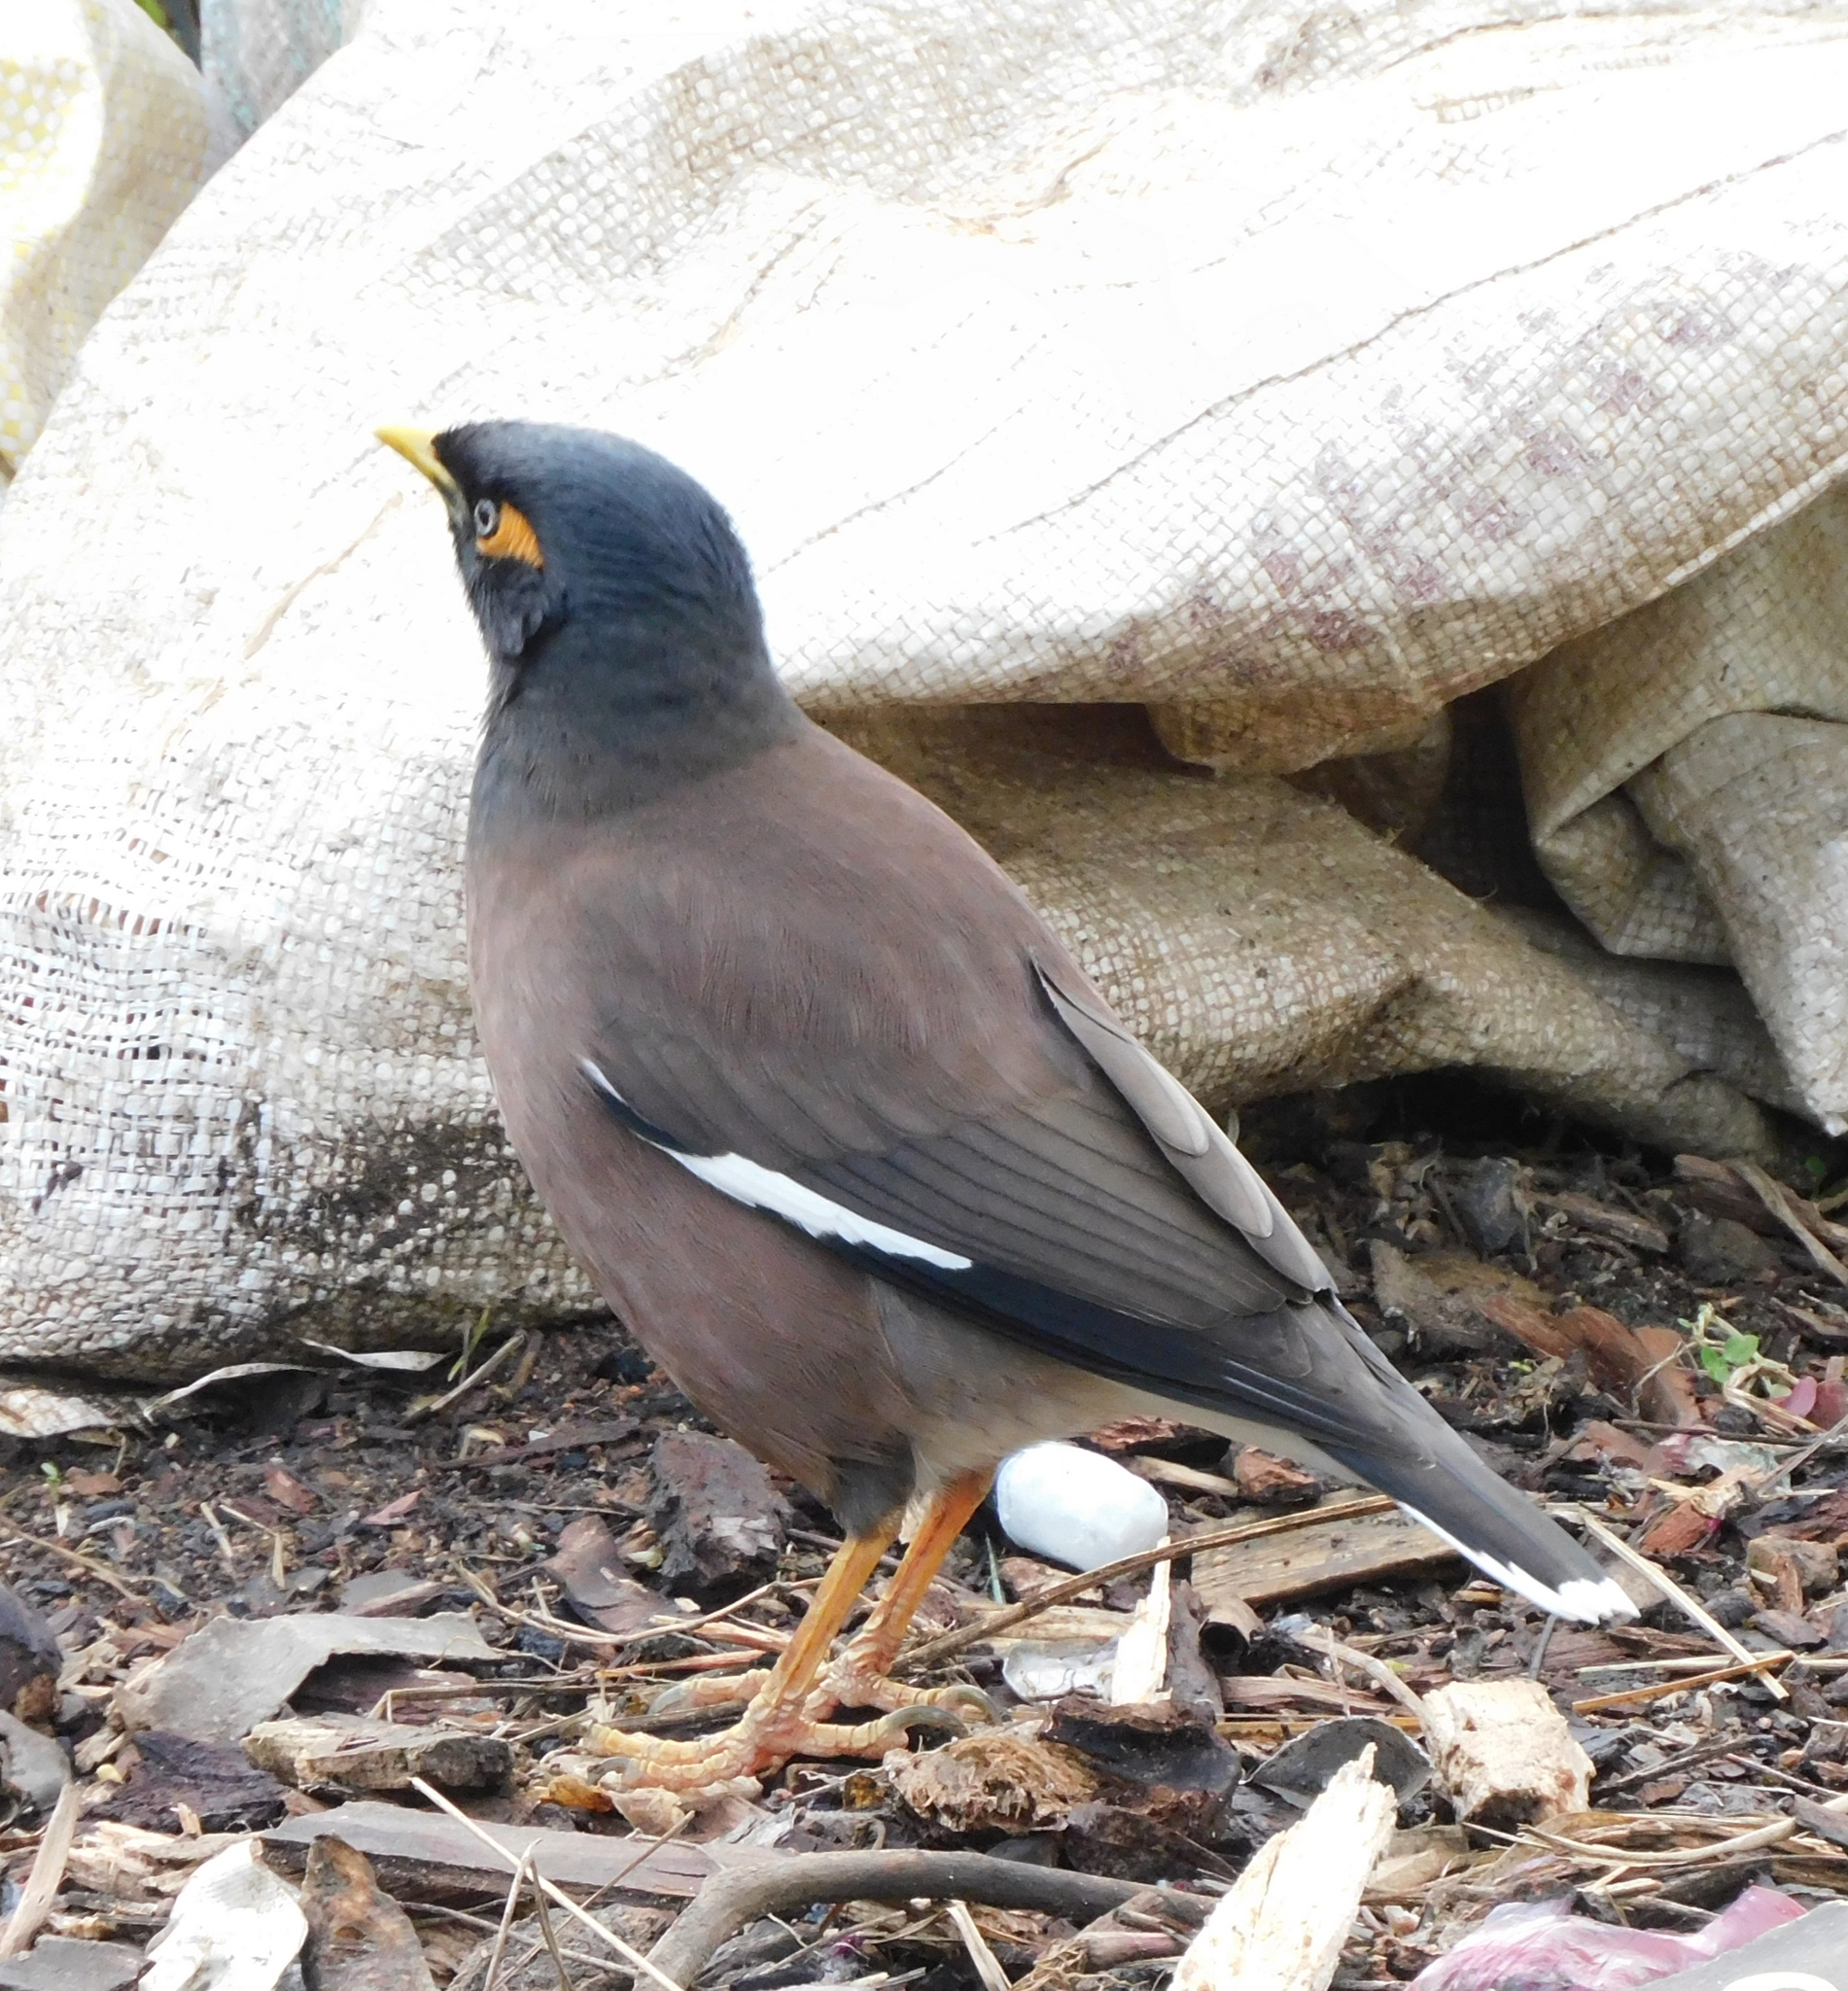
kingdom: Animalia
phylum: Chordata
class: Aves
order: Passeriformes
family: Sturnidae
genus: Acridotheres
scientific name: Acridotheres tristis
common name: Common myna
